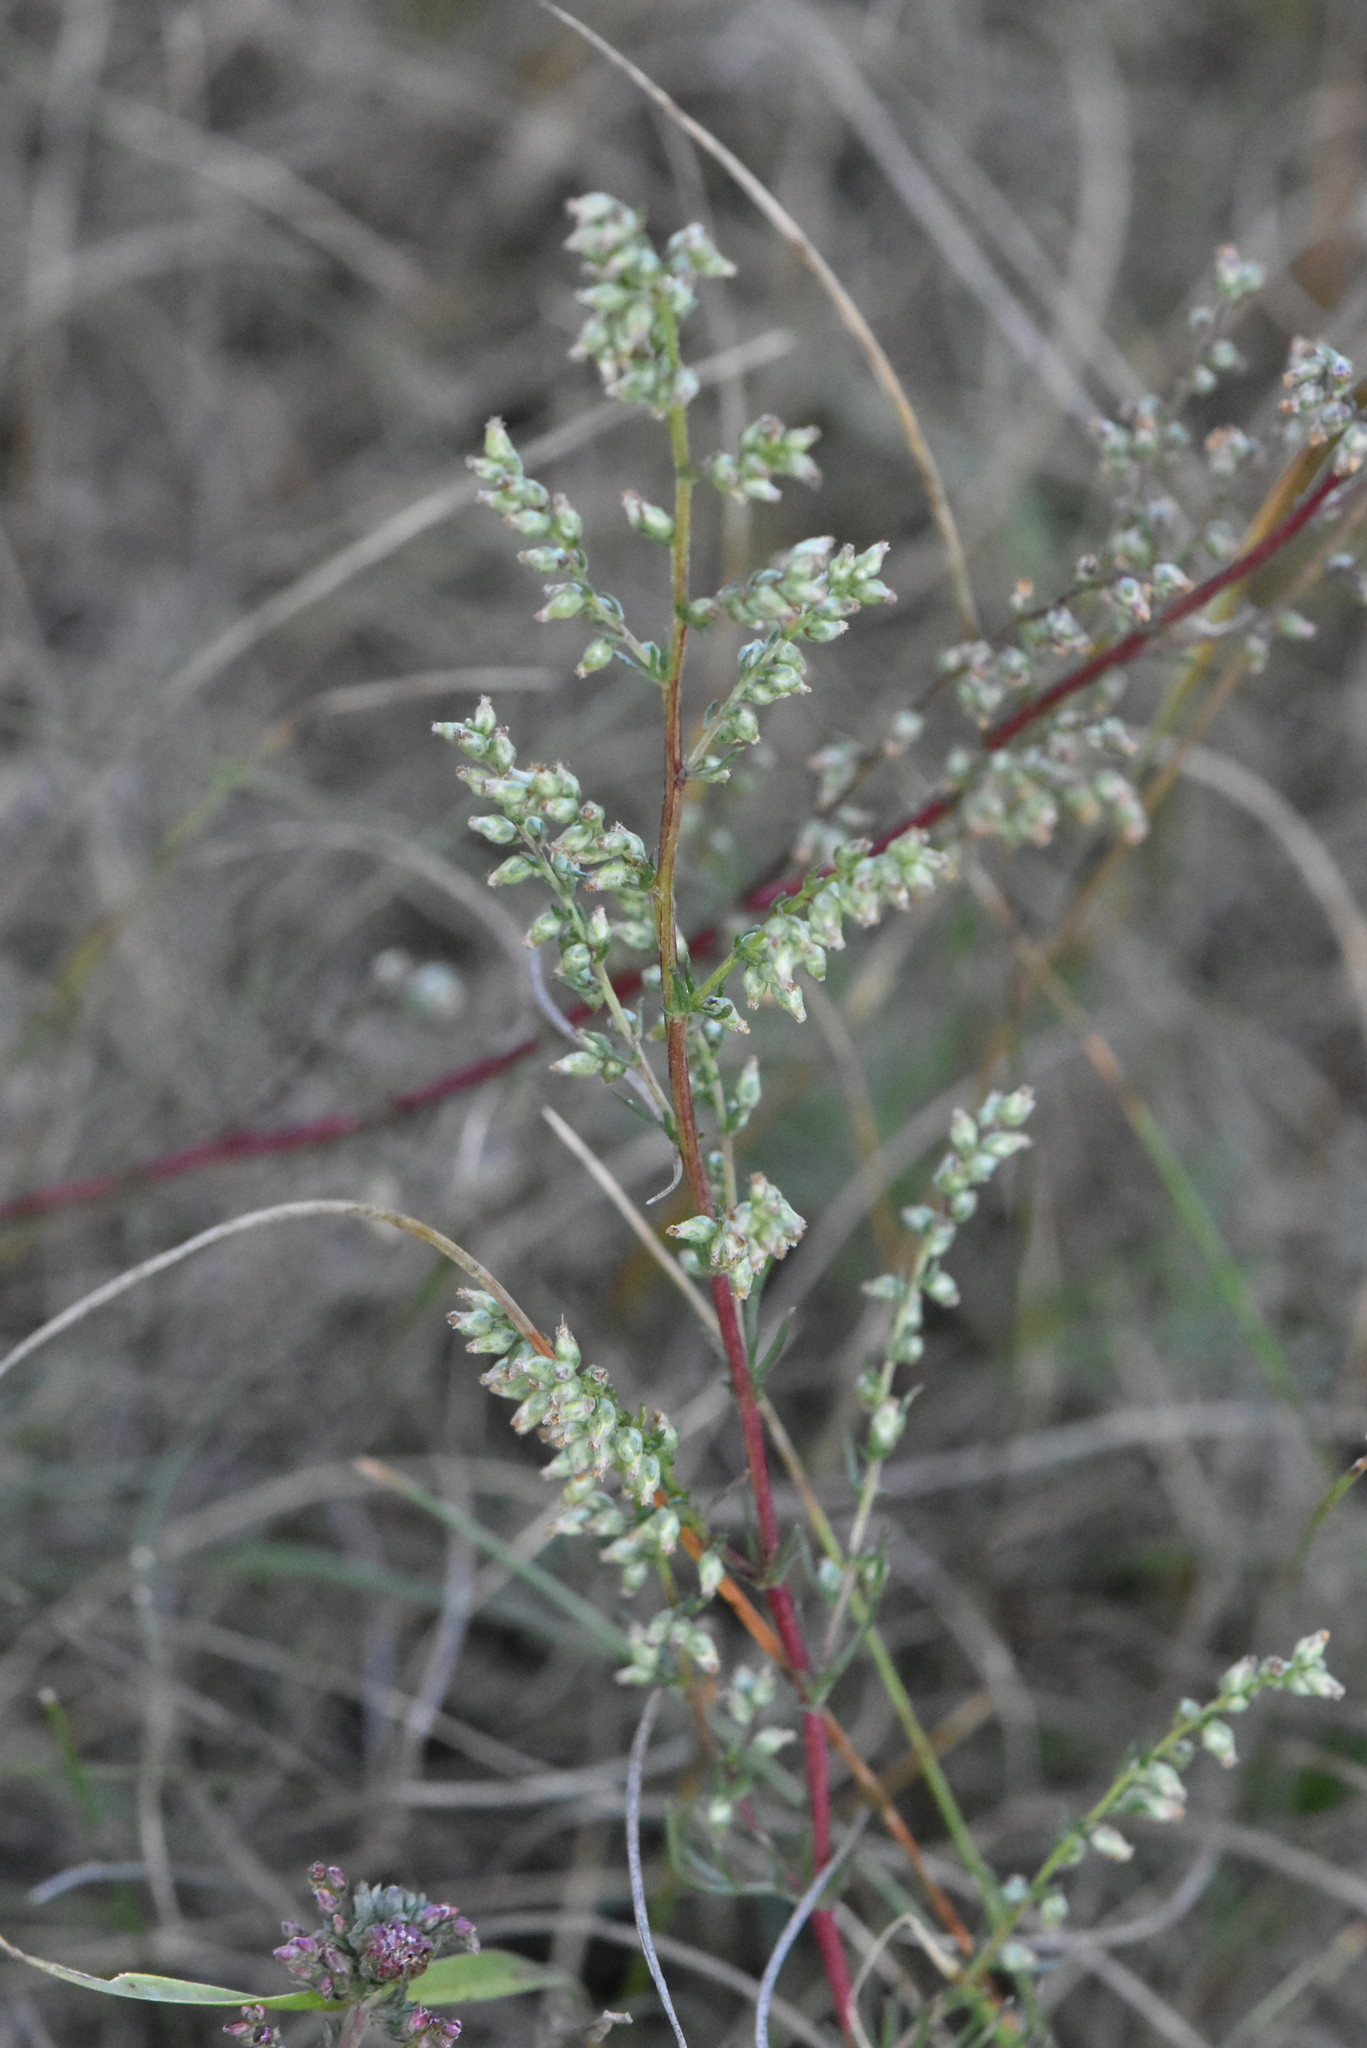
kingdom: Plantae
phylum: Tracheophyta
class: Magnoliopsida
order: Asterales
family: Asteraceae
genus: Artemisia
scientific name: Artemisia campestris
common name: Field wormwood
